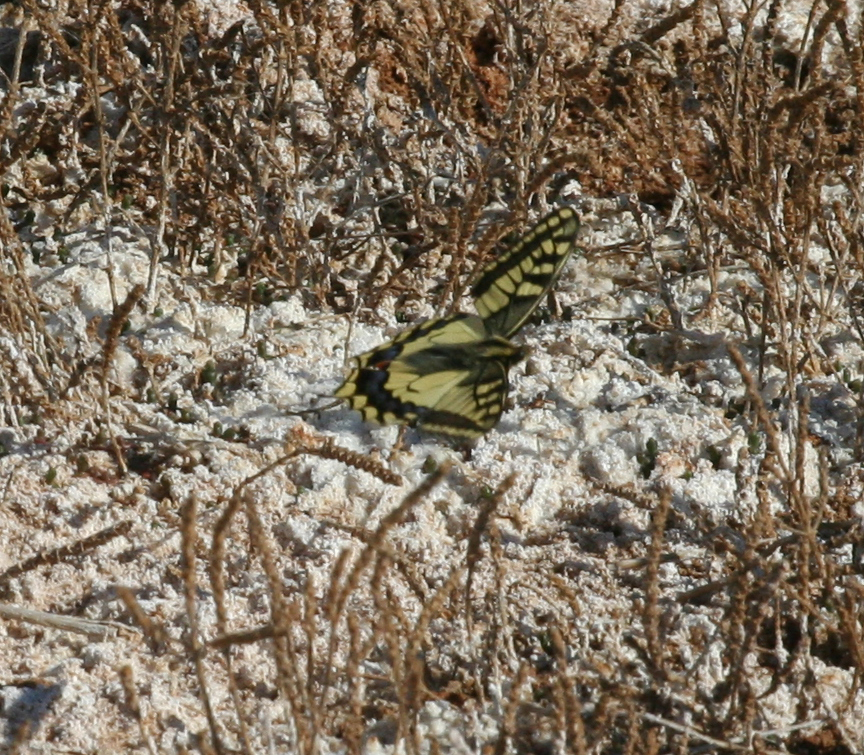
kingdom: Animalia
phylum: Arthropoda
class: Insecta
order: Lepidoptera
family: Papilionidae
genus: Papilio
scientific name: Papilio machaon
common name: Swallowtail
